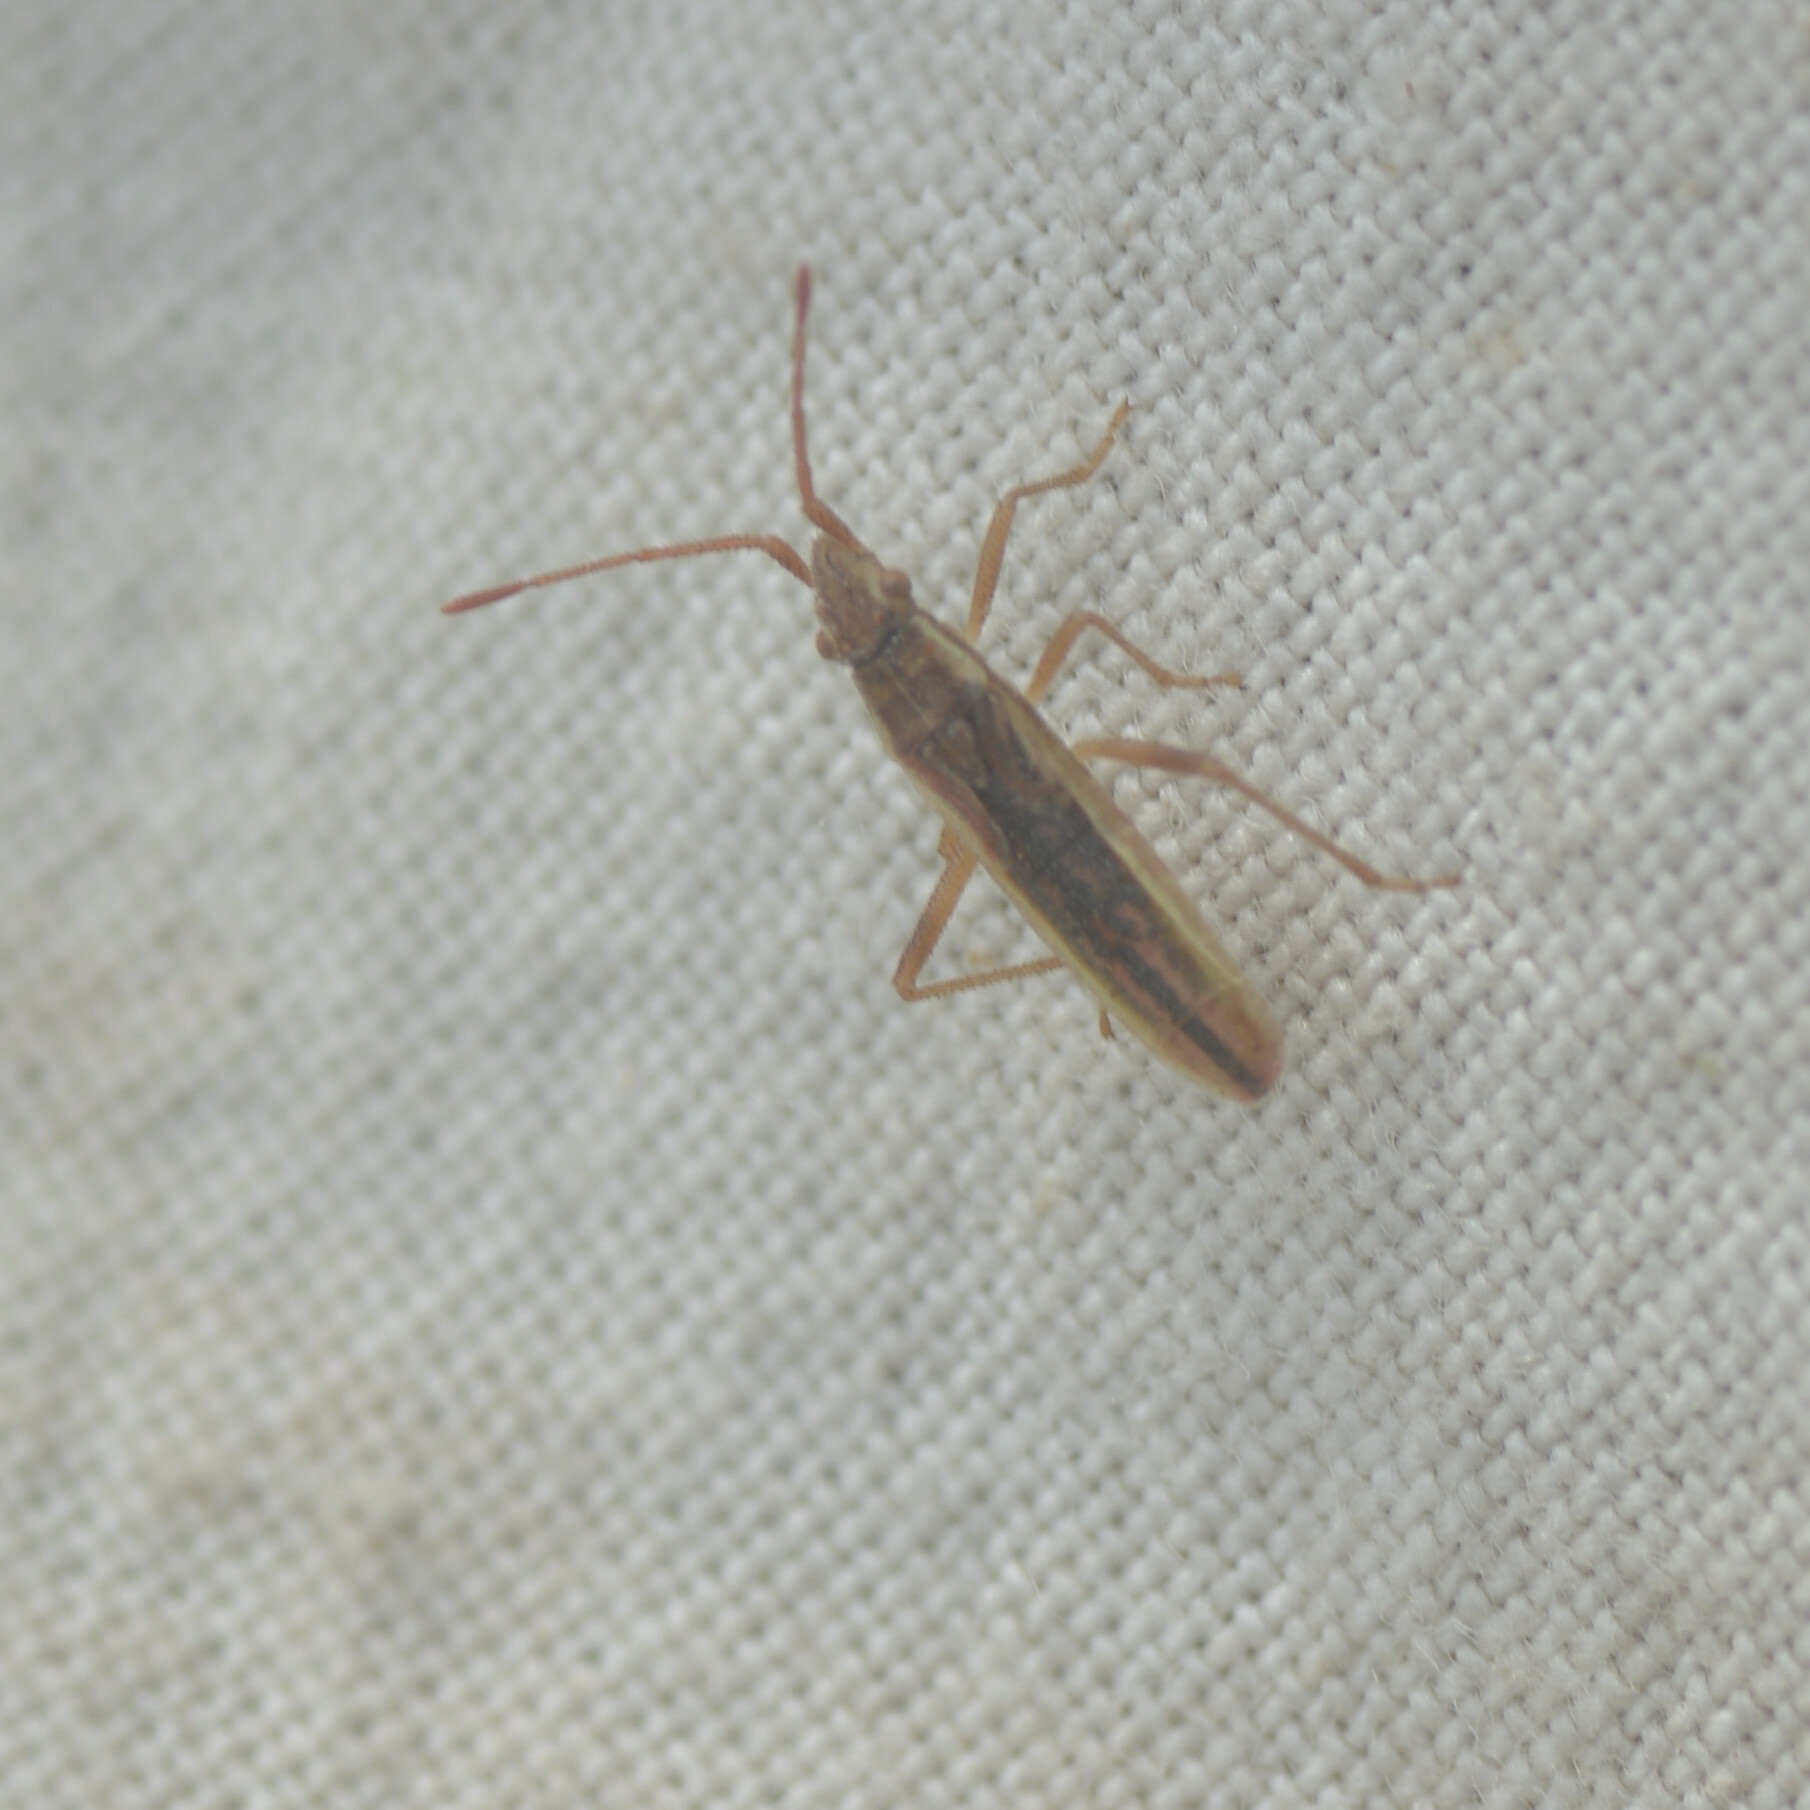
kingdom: Animalia
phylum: Arthropoda
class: Insecta
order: Hemiptera
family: Rhopalidae
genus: Myrmus
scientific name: Myrmus miriformis
